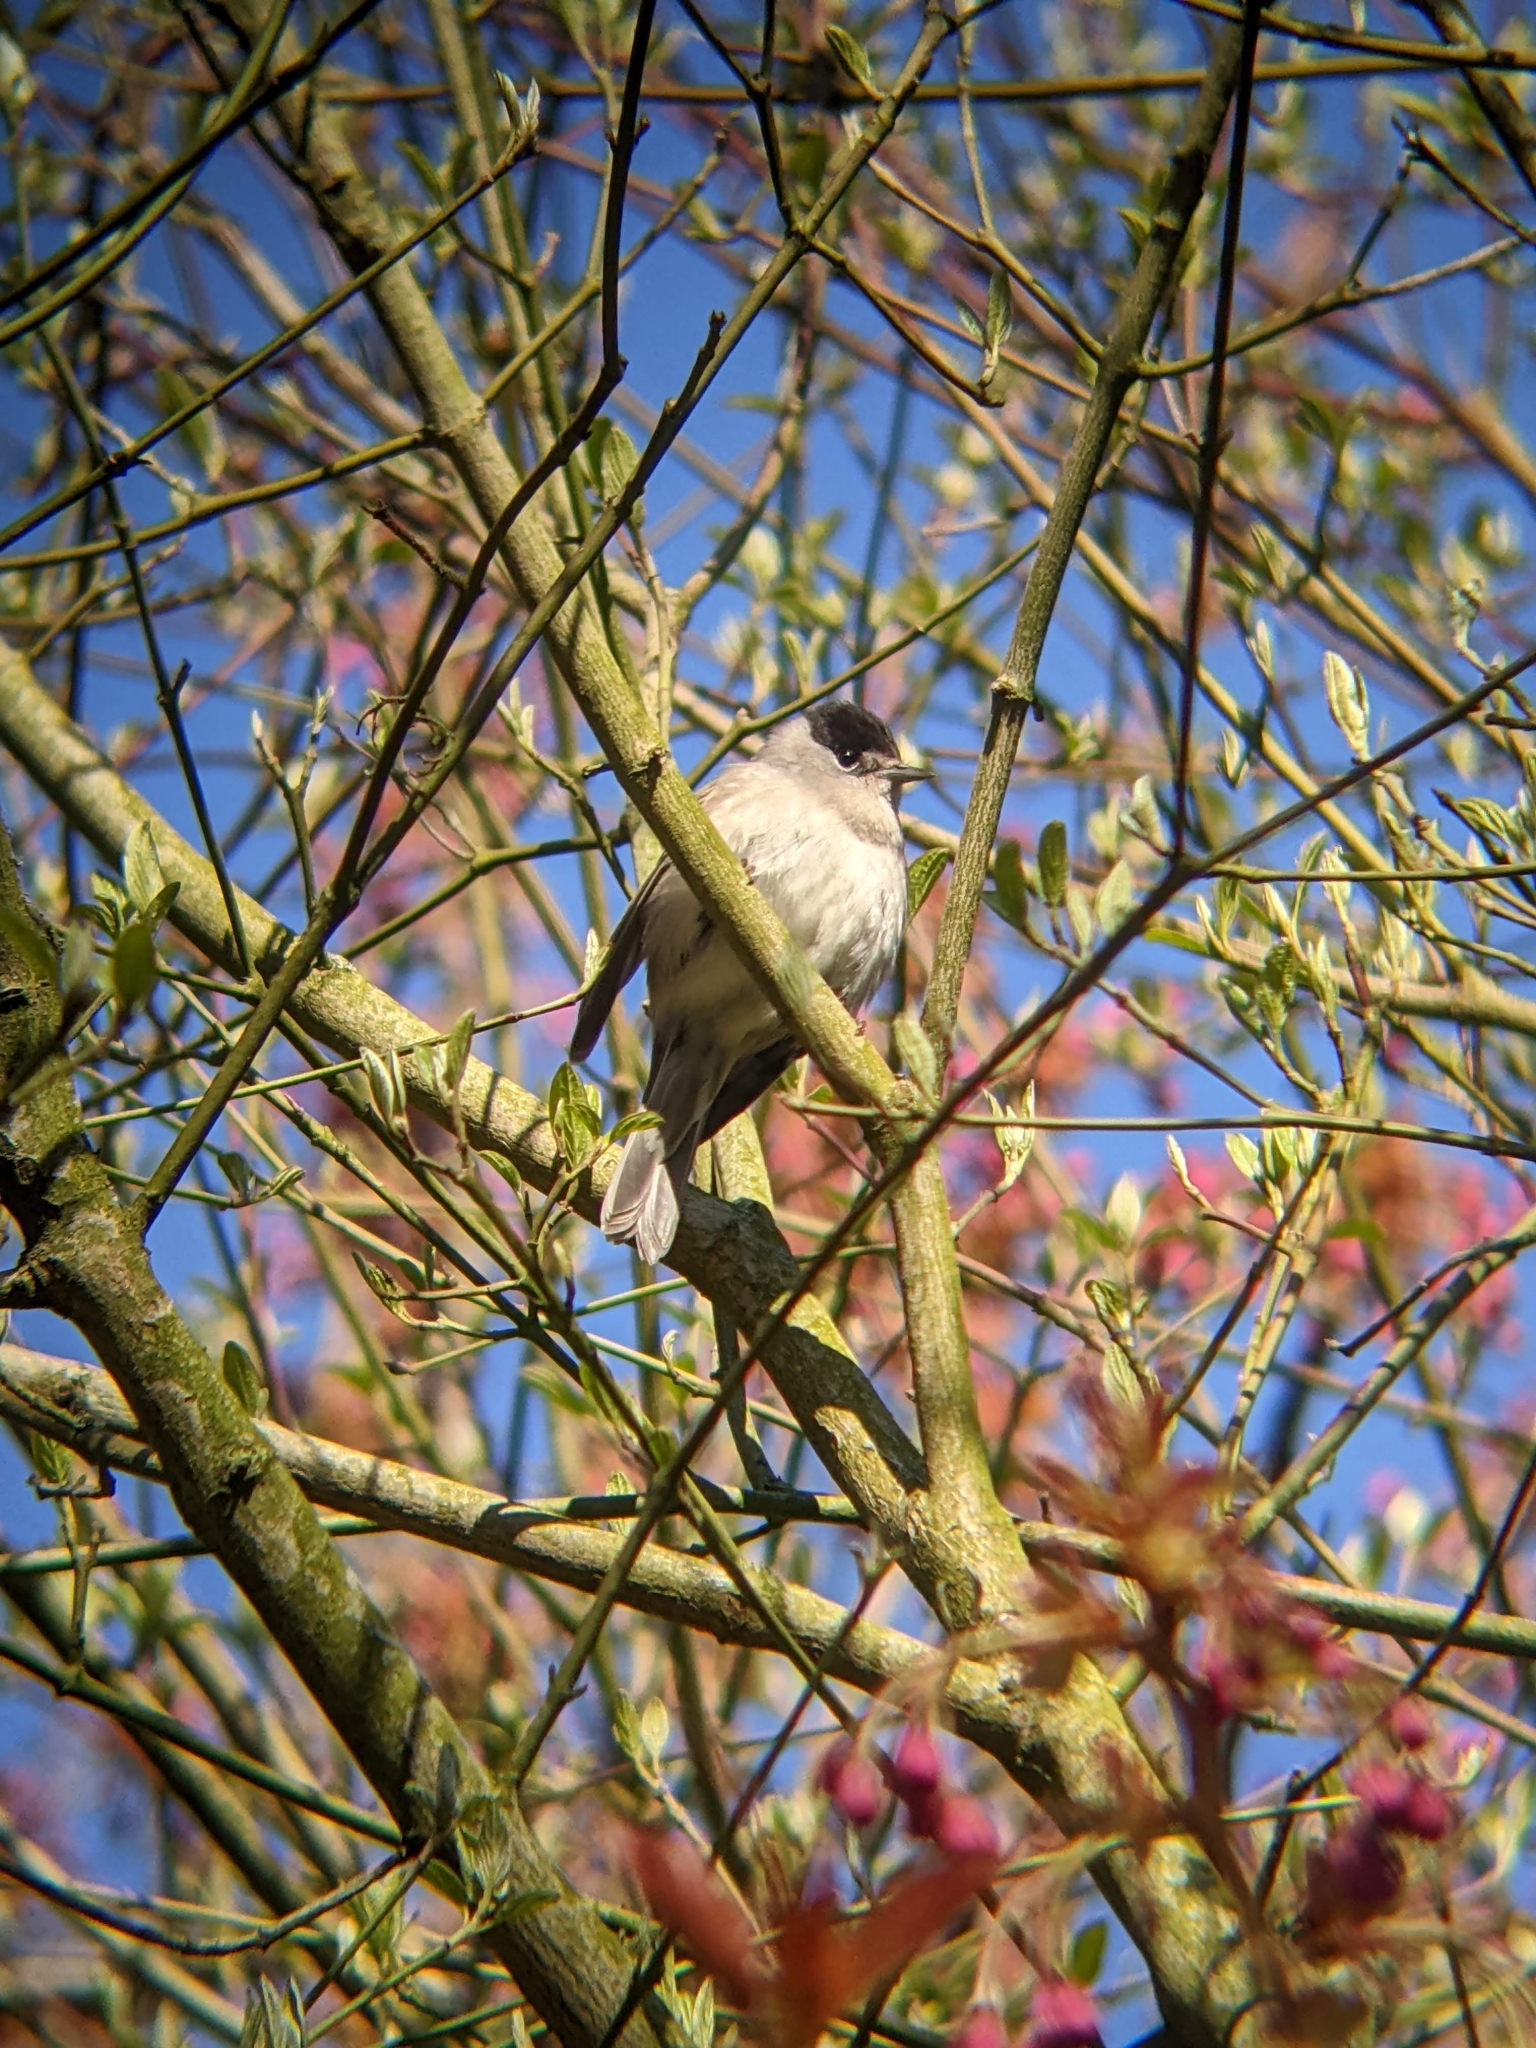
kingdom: Animalia
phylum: Chordata
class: Aves
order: Passeriformes
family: Sylviidae
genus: Sylvia
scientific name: Sylvia atricapilla
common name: Eurasian blackcap
